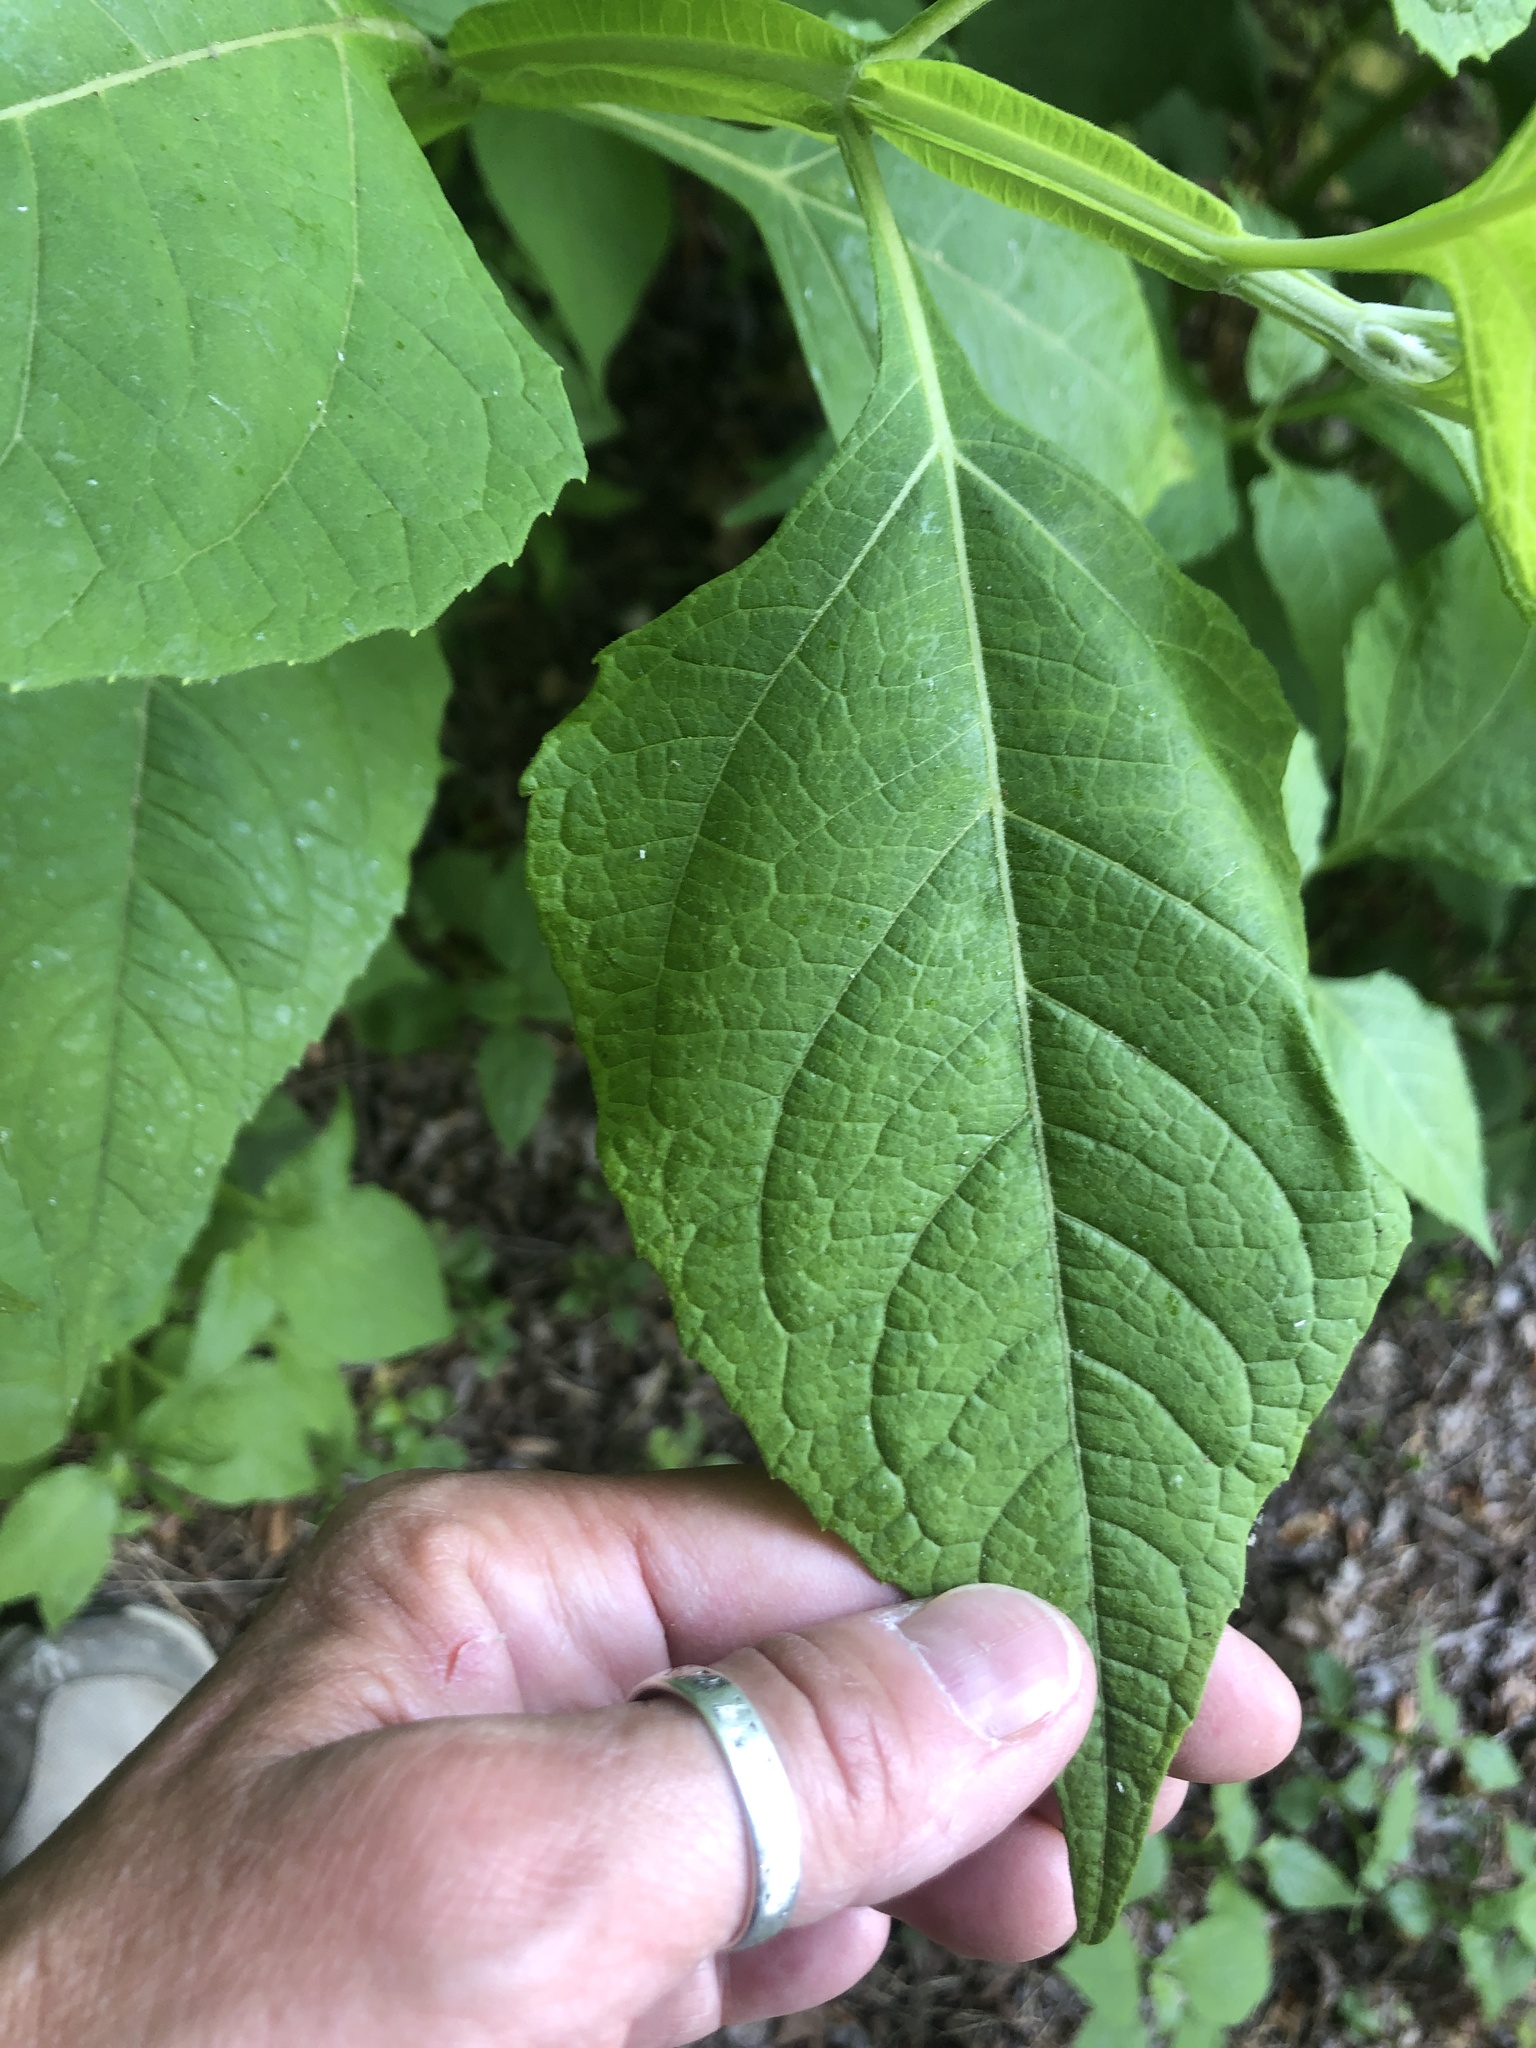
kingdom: Plantae
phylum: Tracheophyta
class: Magnoliopsida
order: Asterales
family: Asteraceae
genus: Verbesina
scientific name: Verbesina occidentalis
